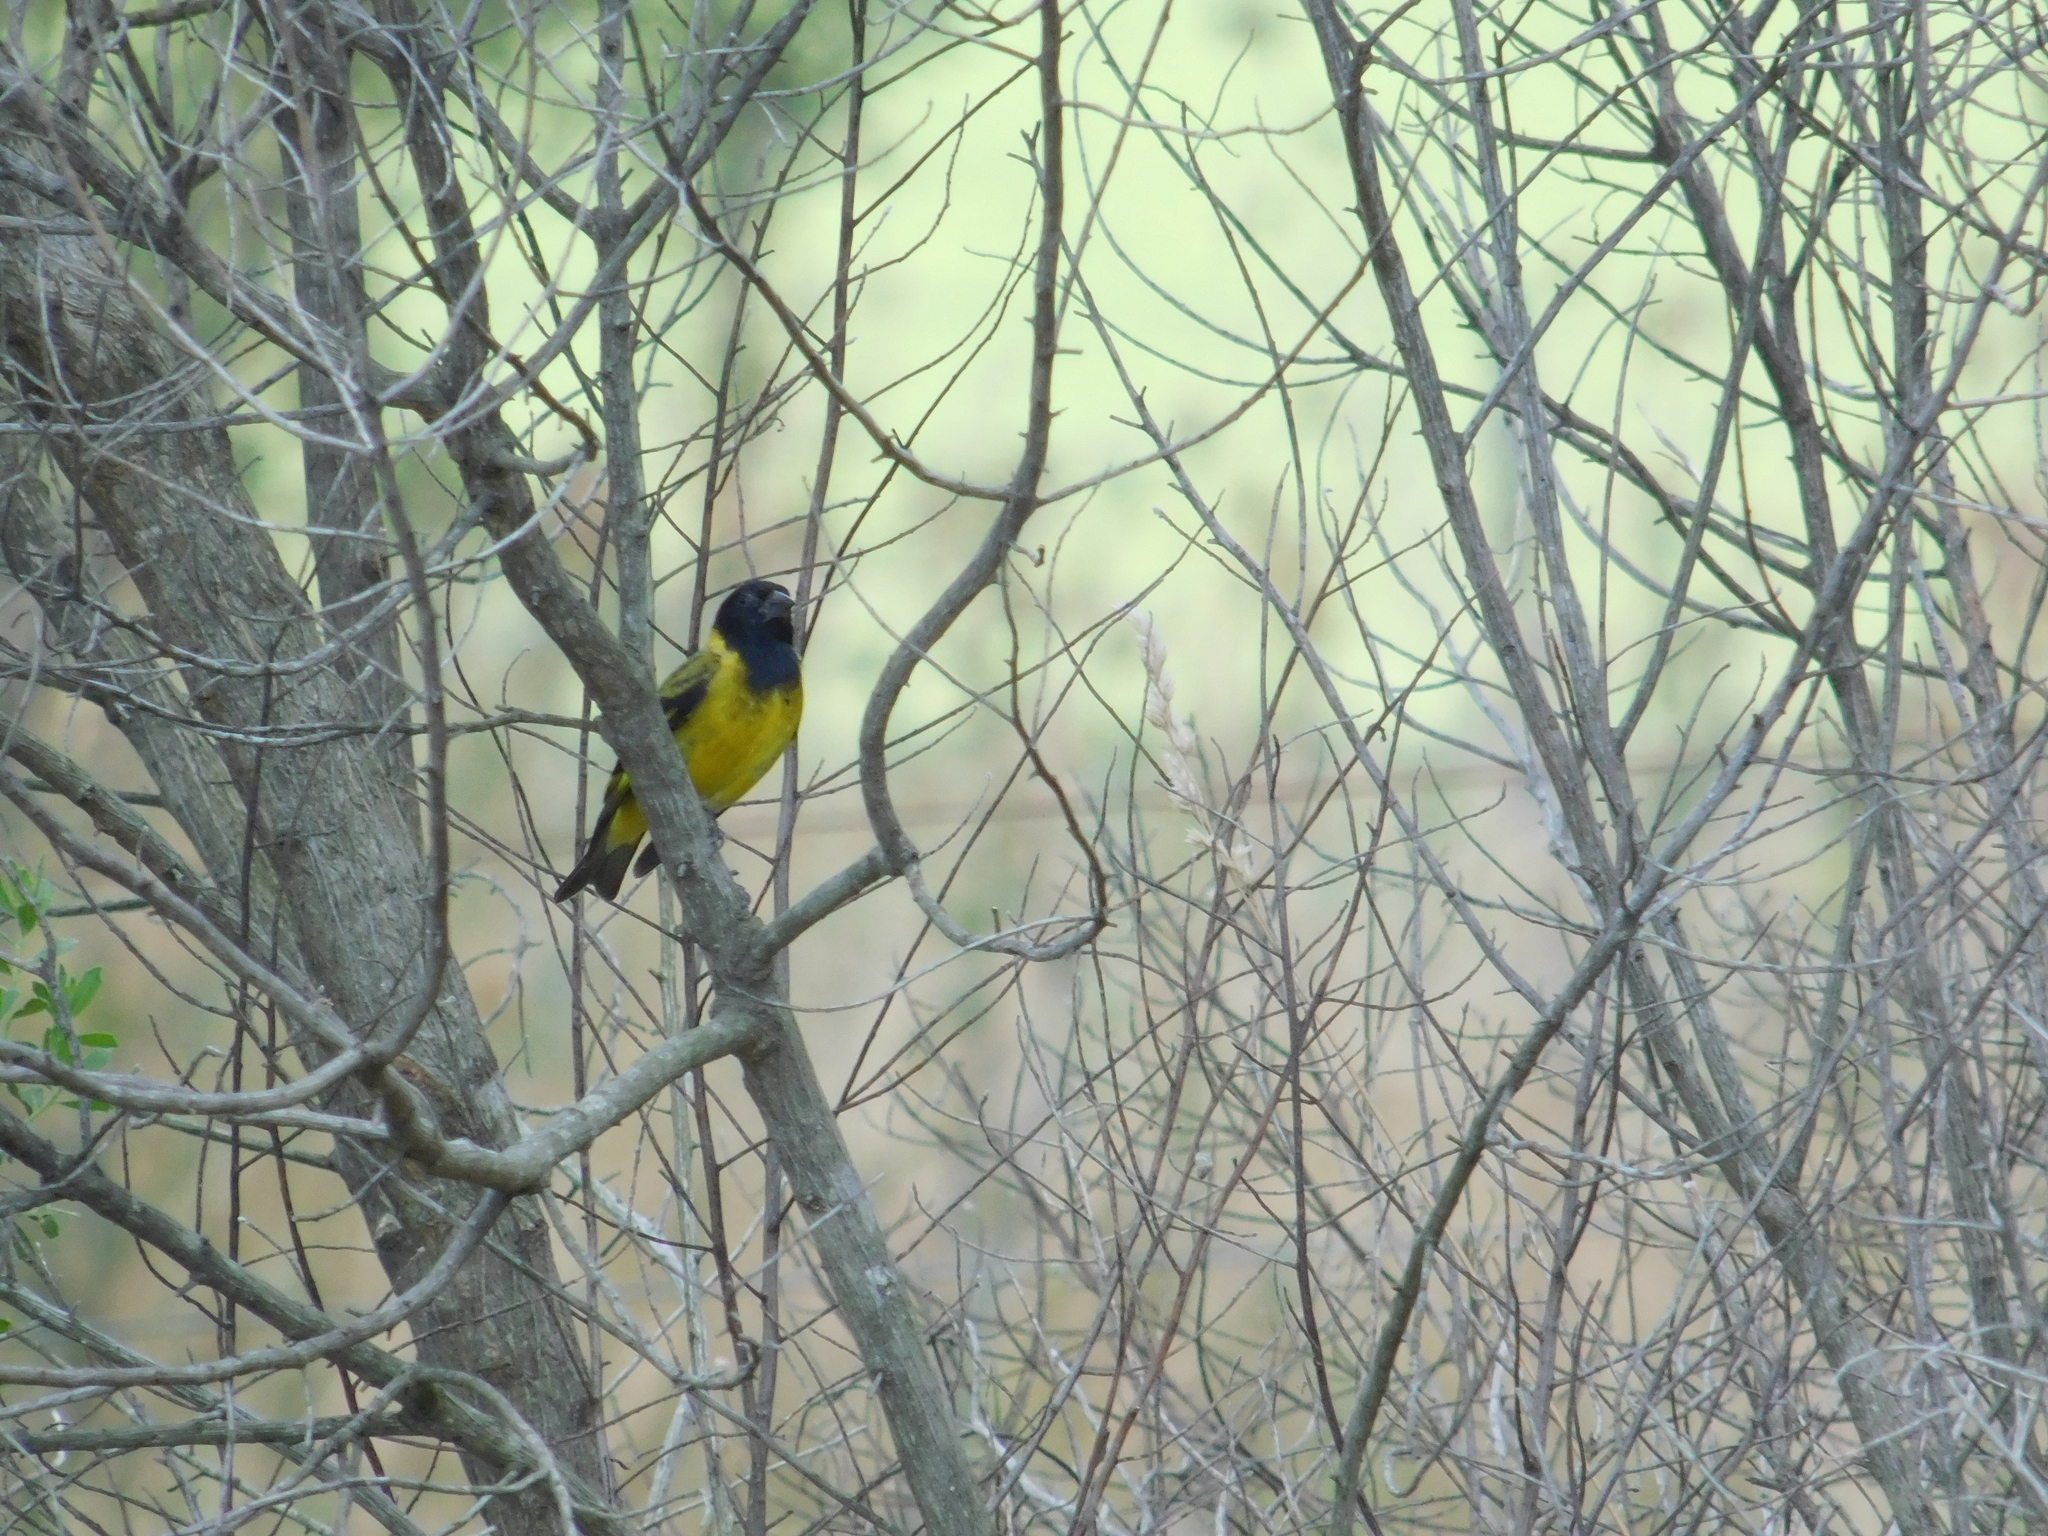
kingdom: Animalia
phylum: Chordata
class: Aves
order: Passeriformes
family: Fringillidae
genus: Spinus
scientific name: Spinus magellanicus
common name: Hooded siskin
